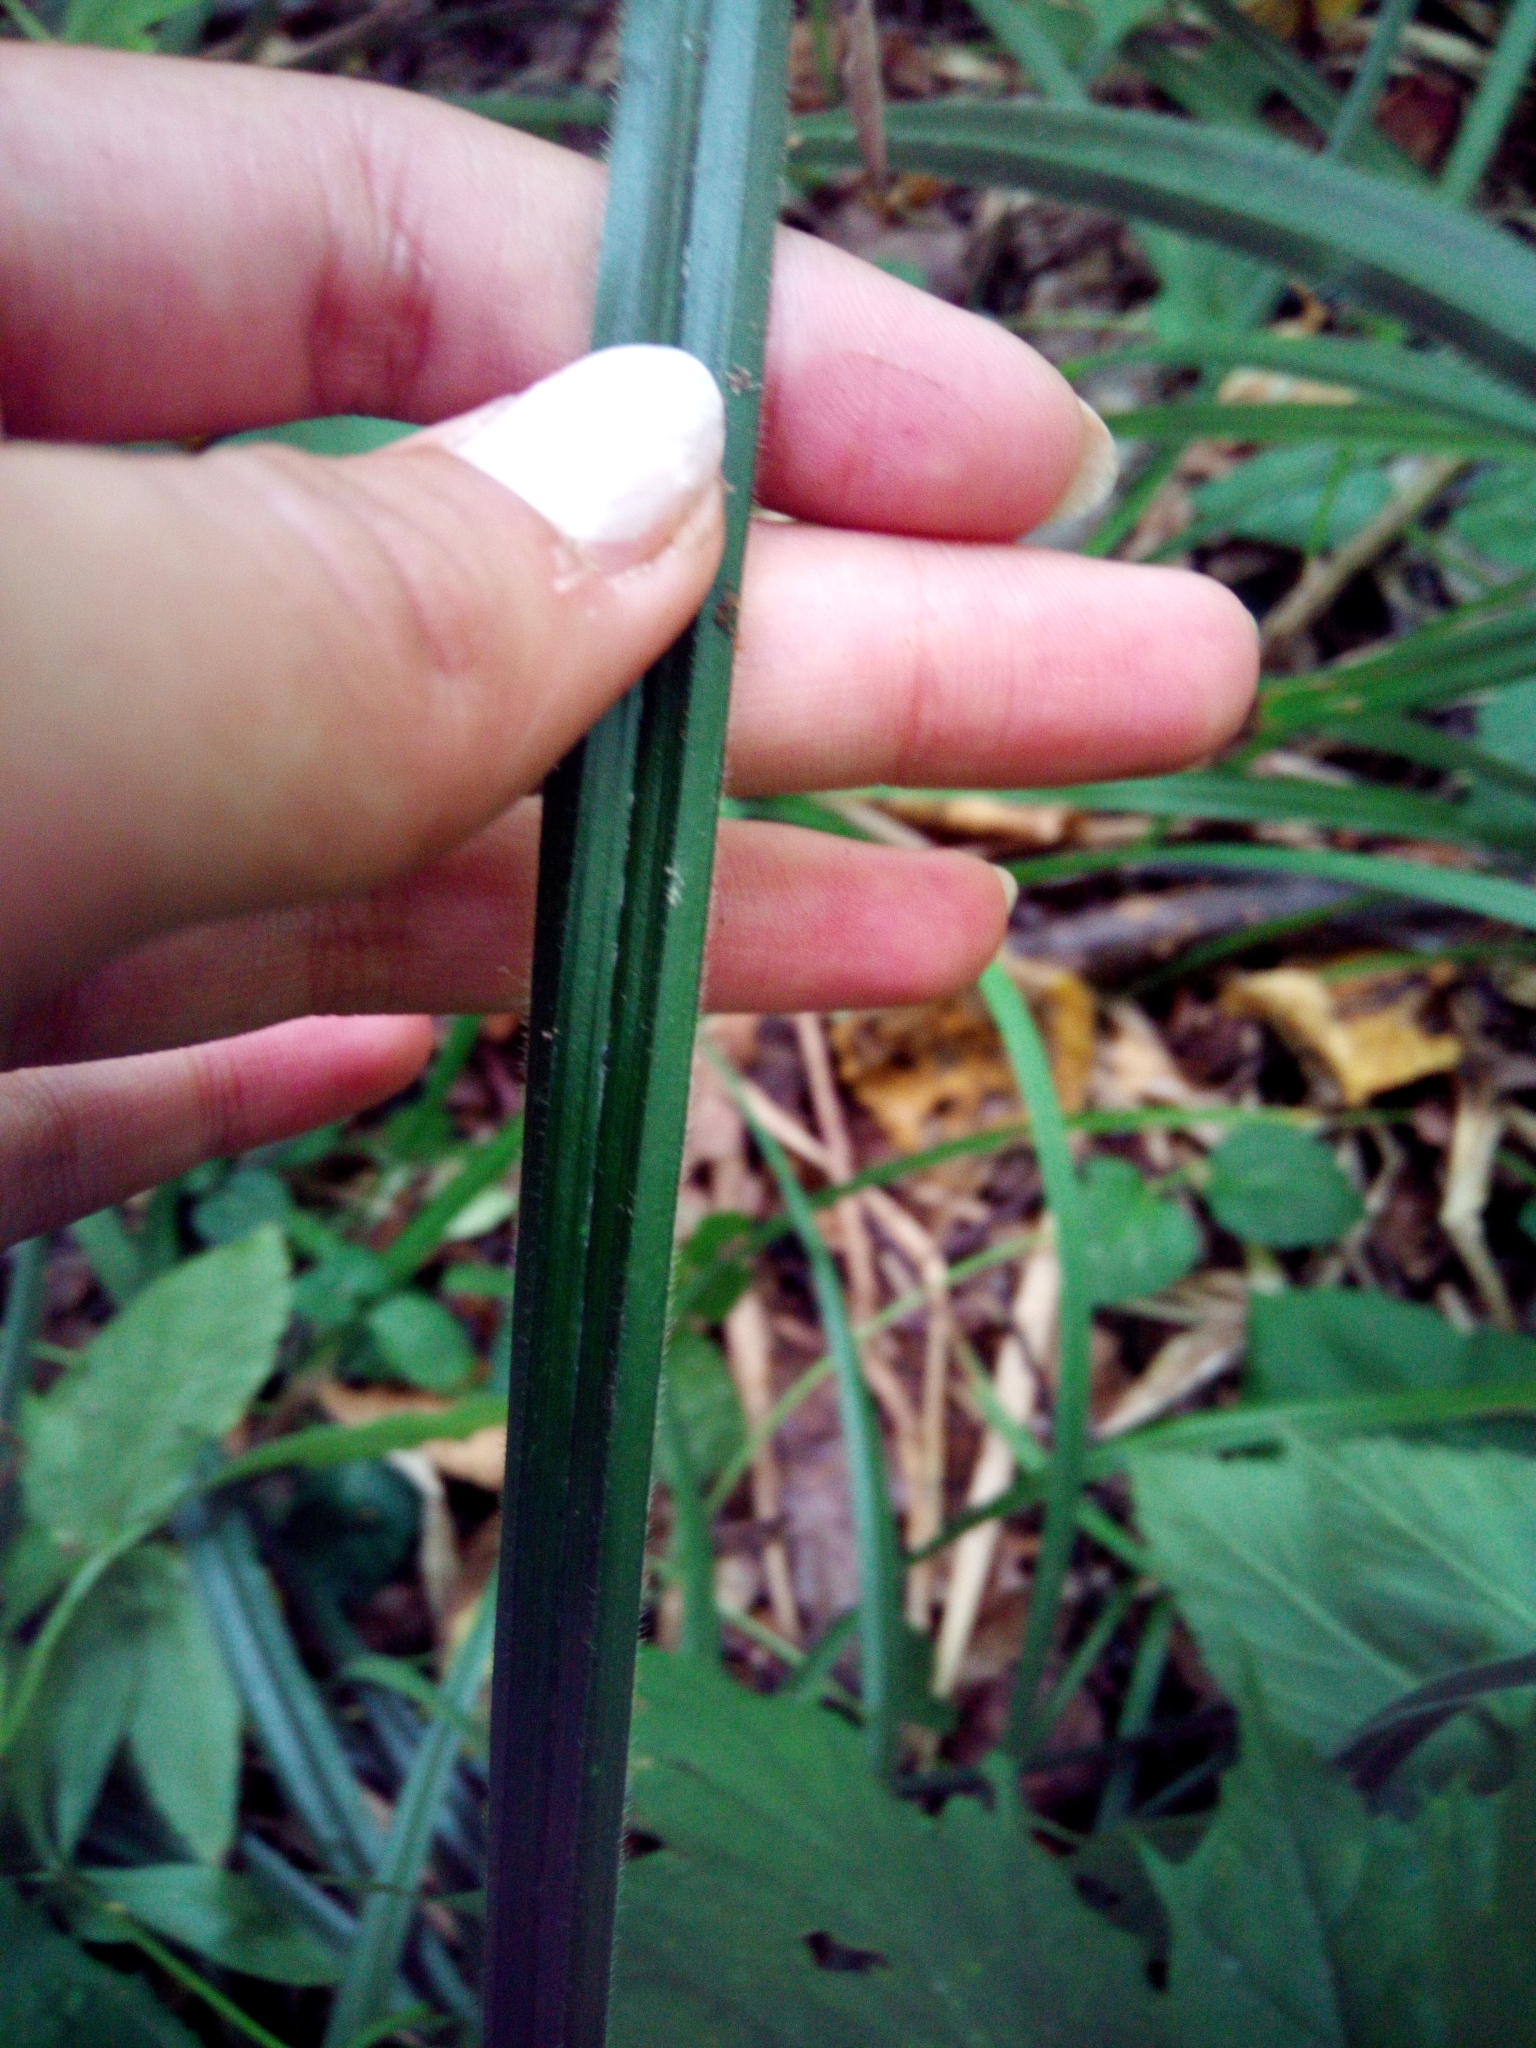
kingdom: Plantae
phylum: Tracheophyta
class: Liliopsida
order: Poales
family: Cyperaceae
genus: Carex
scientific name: Carex pilosa
